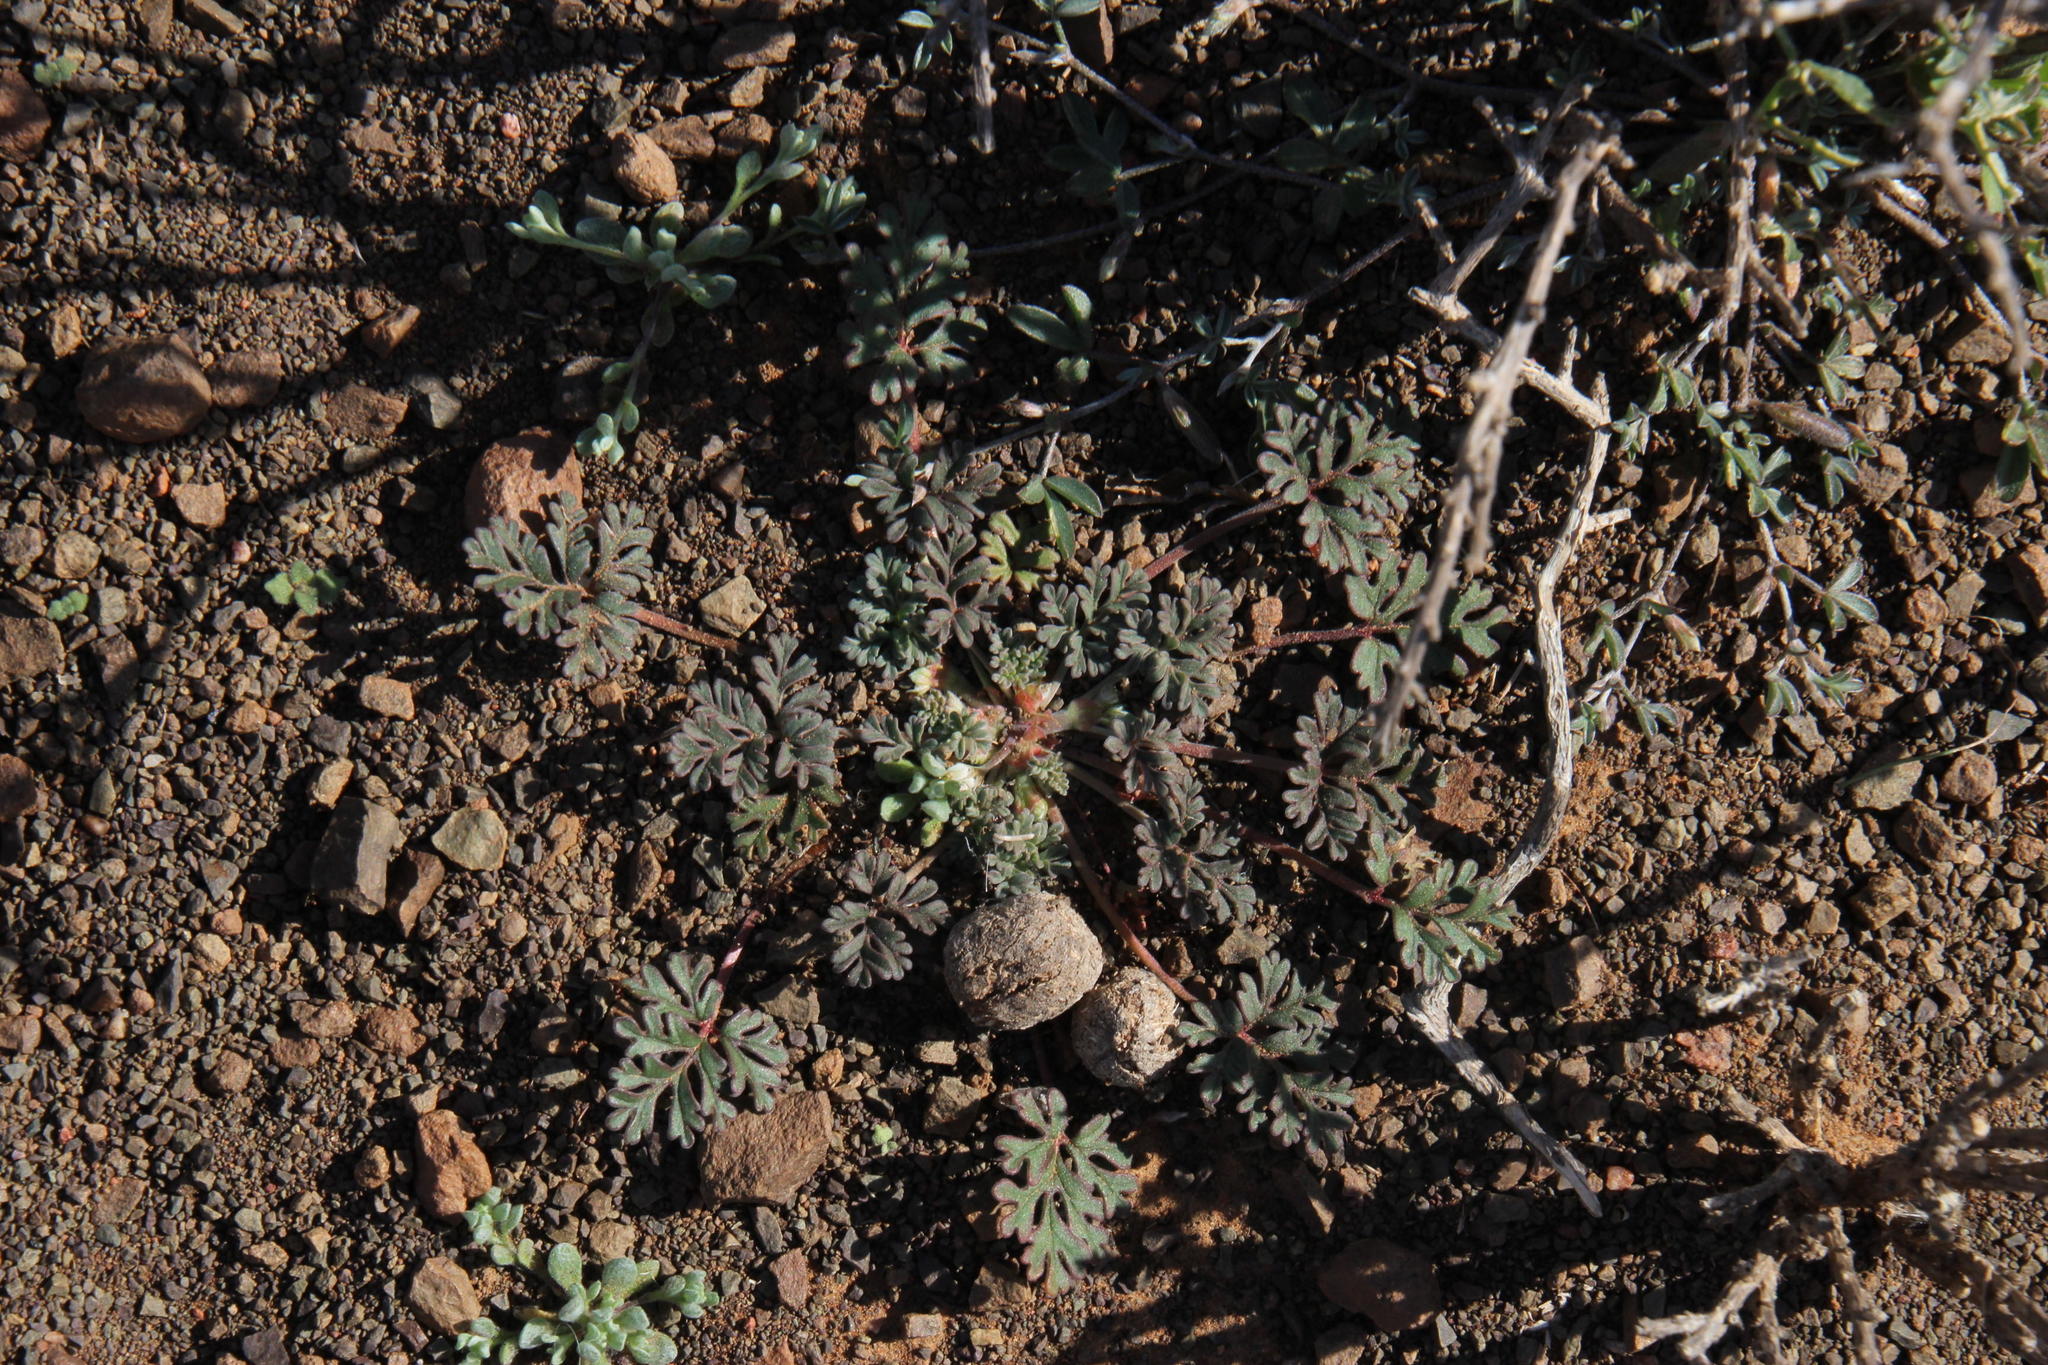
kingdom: Plantae
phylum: Tracheophyta
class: Magnoliopsida
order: Geraniales
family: Geraniaceae
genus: Pelargonium
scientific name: Pelargonium minimum
